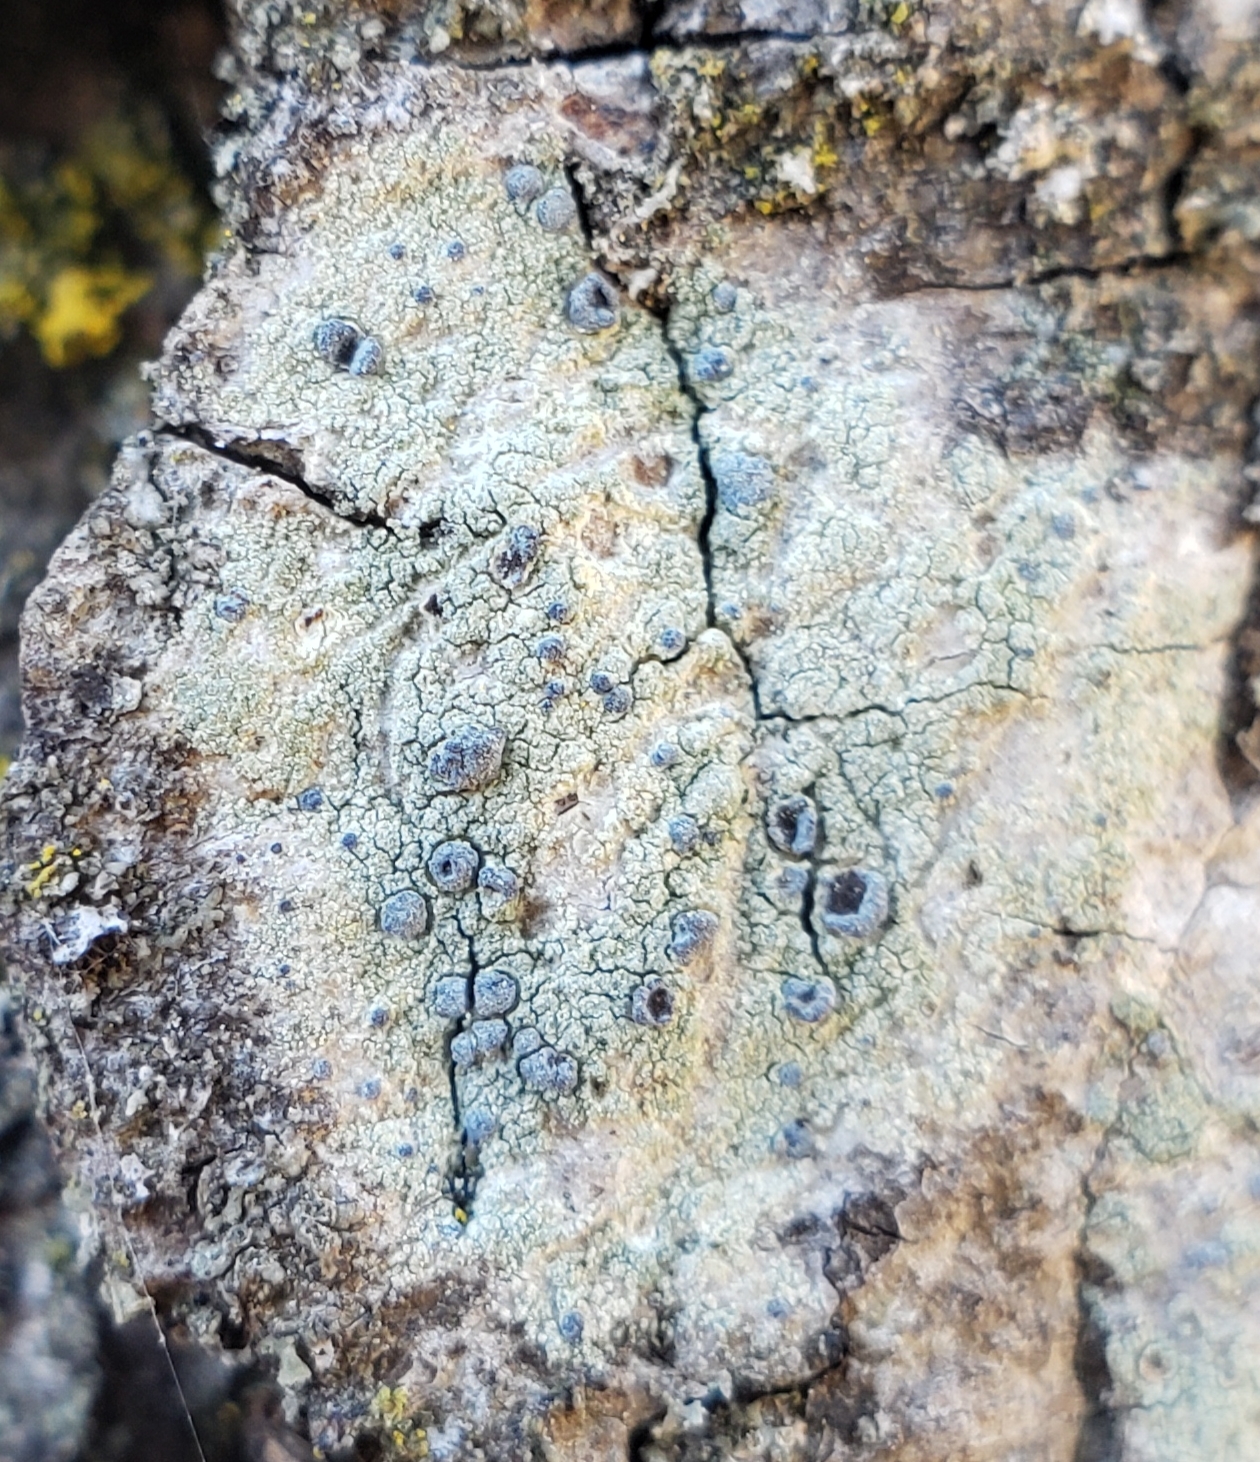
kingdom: Fungi
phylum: Ascomycota
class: Arthoniomycetes
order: Arthoniales
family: Chrysotrichaceae
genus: Chrysothrix
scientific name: Chrysothrix caesia
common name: Frosted comma lichen
